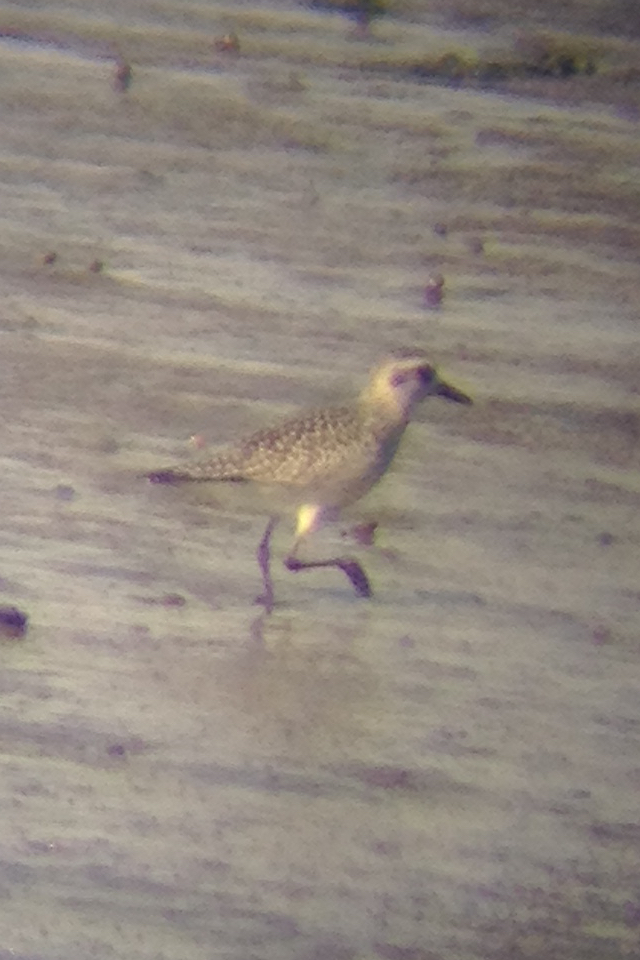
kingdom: Animalia
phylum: Chordata
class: Aves
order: Charadriiformes
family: Charadriidae
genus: Pluvialis
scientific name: Pluvialis squatarola
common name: Grey plover
